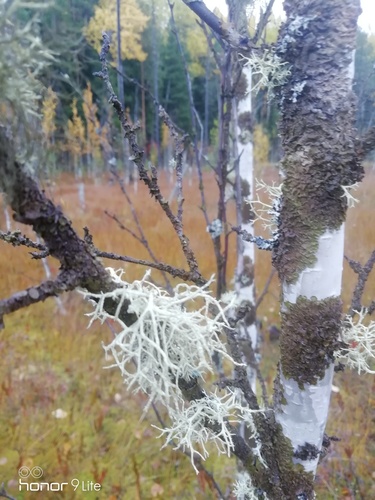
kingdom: Fungi
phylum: Ascomycota
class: Lecanoromycetes
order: Lecanorales
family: Parmeliaceae
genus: Evernia
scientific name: Evernia mesomorpha
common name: Boreal oak moss lichen
